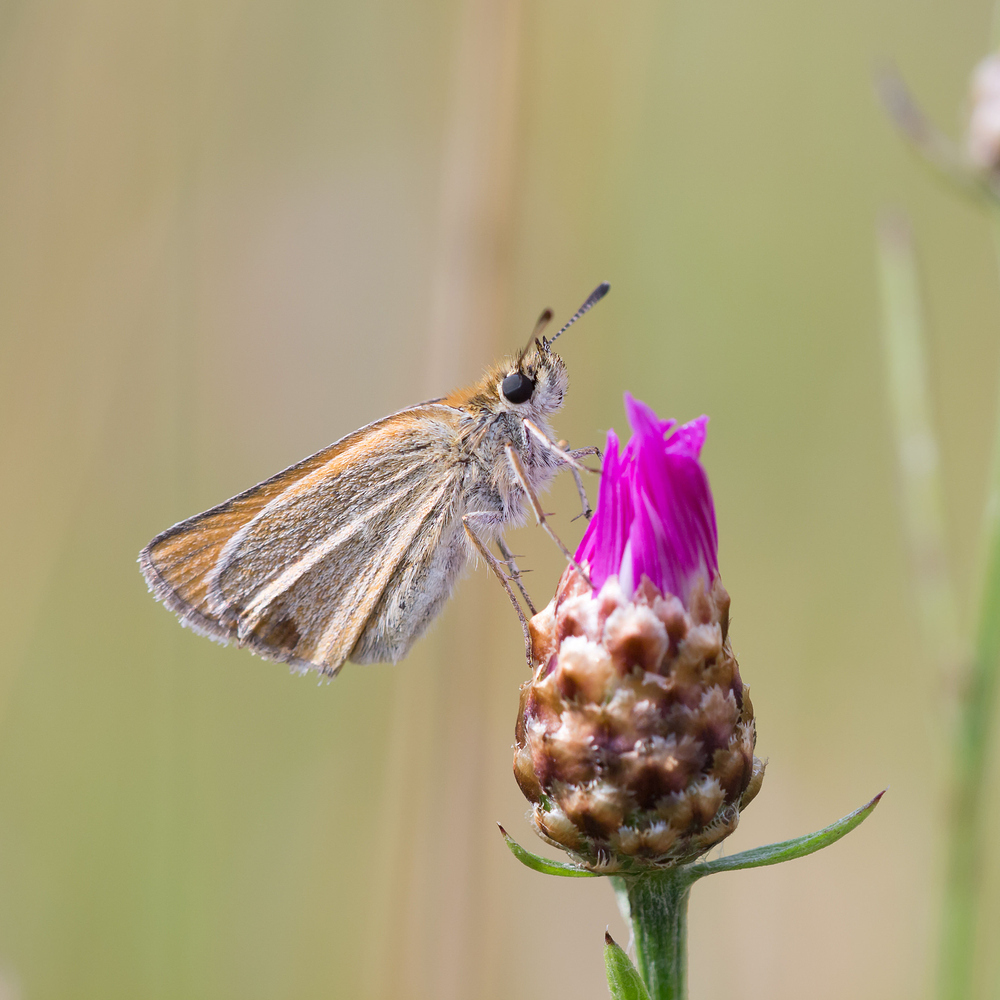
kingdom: Animalia
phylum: Arthropoda
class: Insecta
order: Lepidoptera
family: Hesperiidae
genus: Thymelicus
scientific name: Thymelicus lineola
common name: Essex skipper
